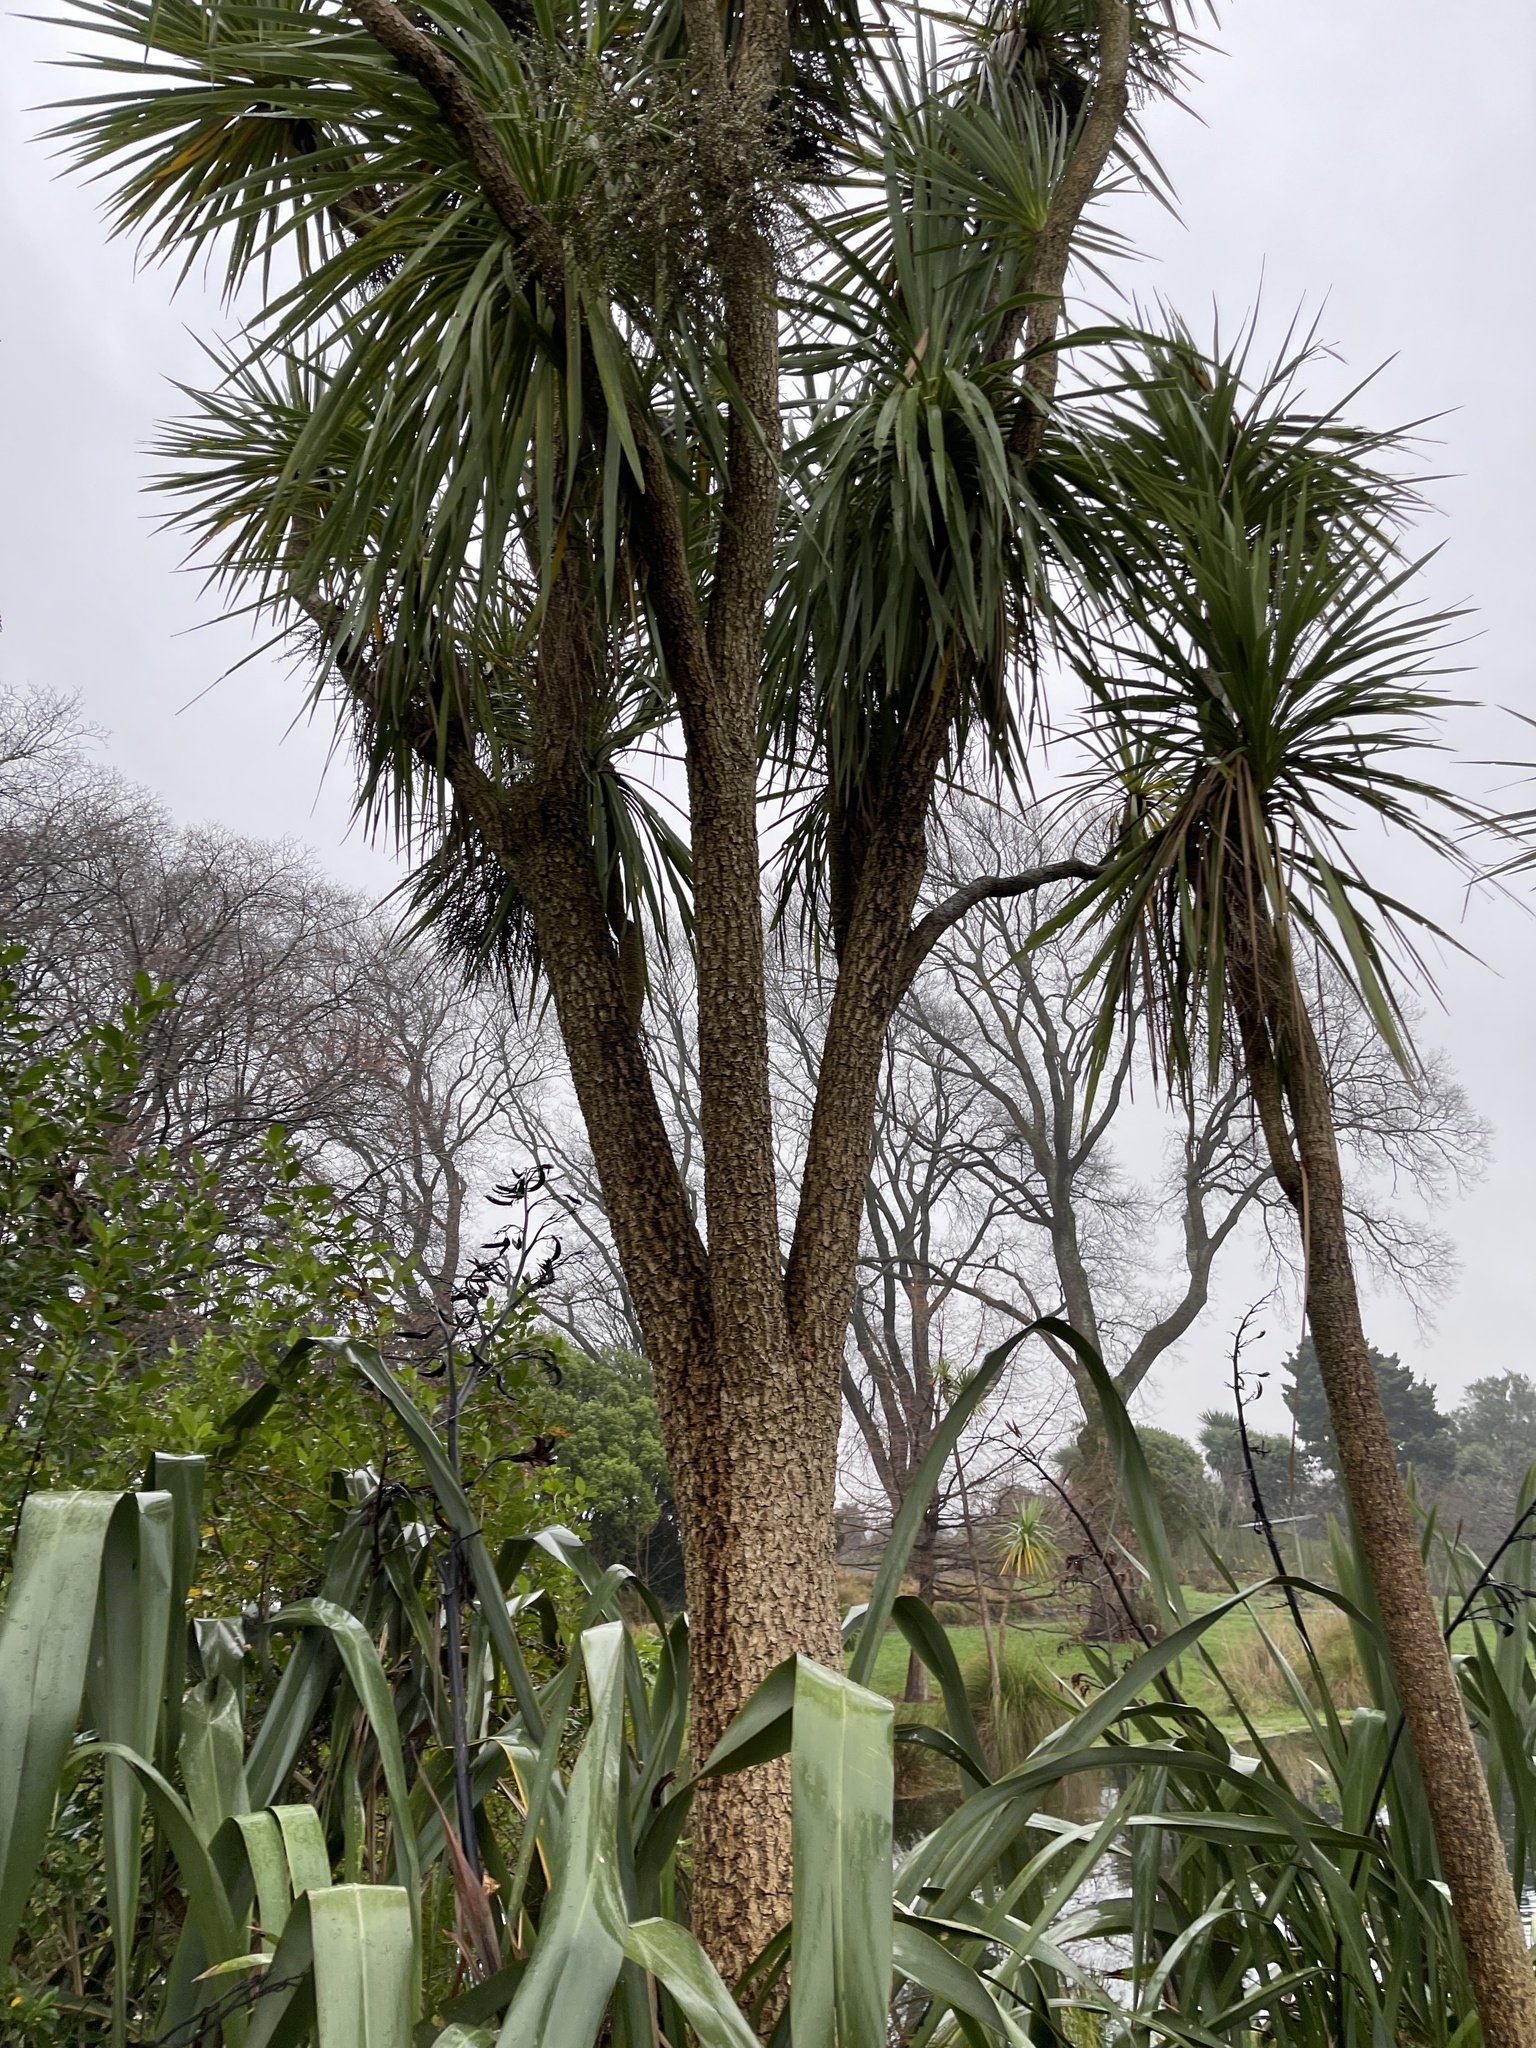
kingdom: Plantae
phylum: Tracheophyta
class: Liliopsida
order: Asparagales
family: Asparagaceae
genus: Cordyline
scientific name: Cordyline australis
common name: Cabbage-palm
